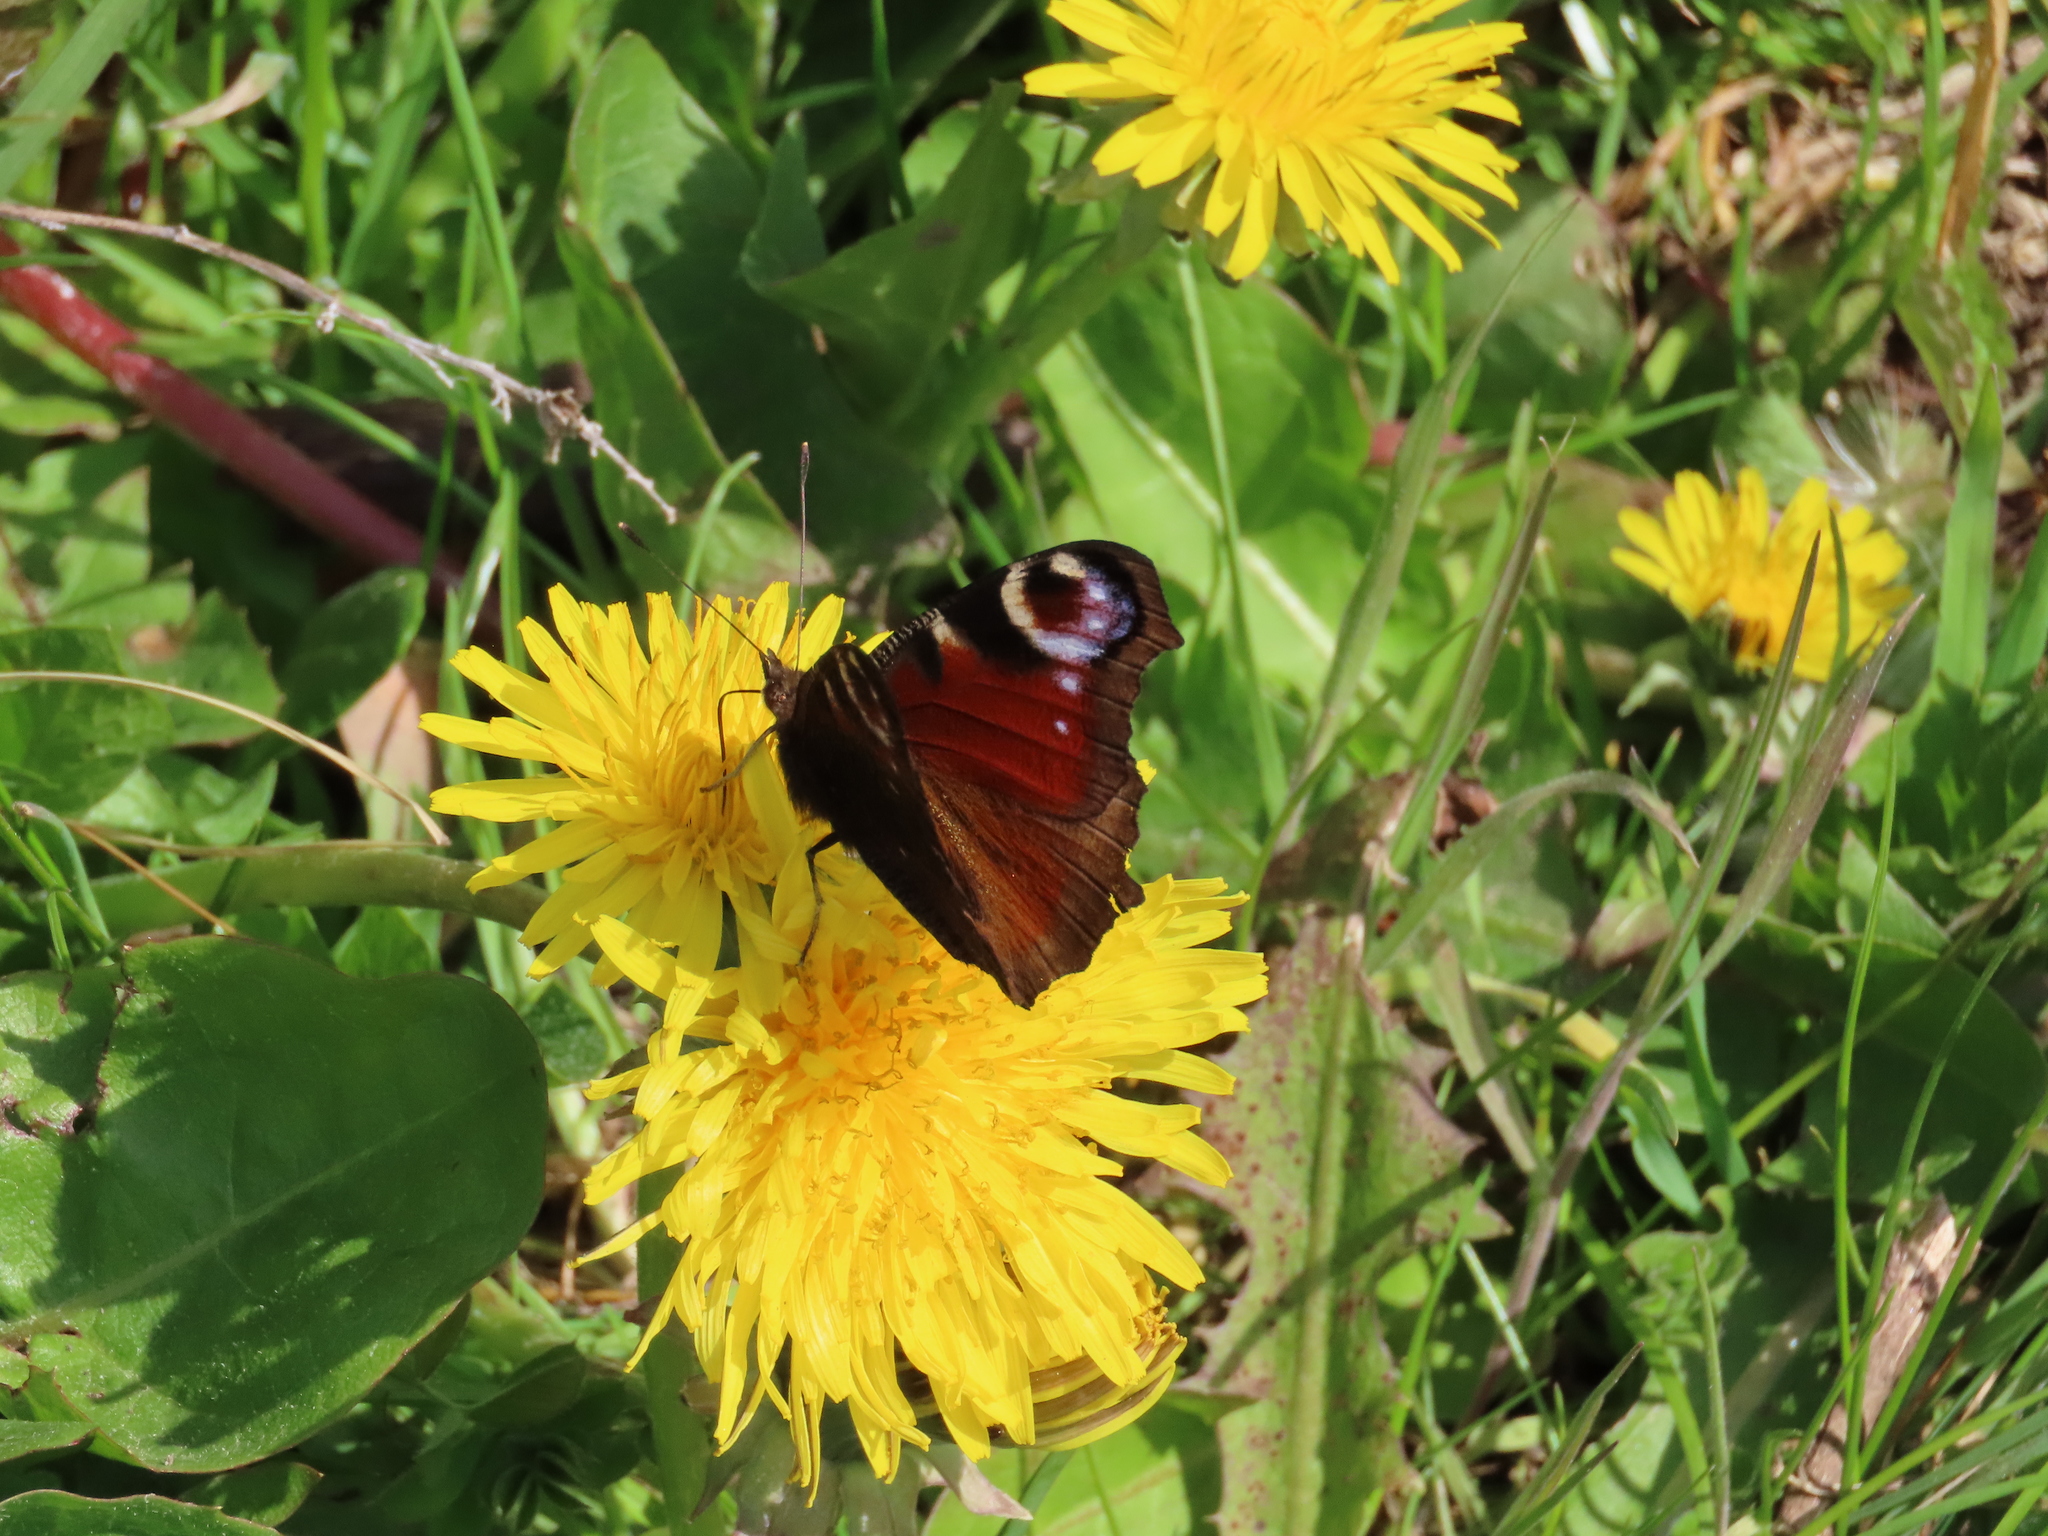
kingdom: Animalia
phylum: Arthropoda
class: Insecta
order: Lepidoptera
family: Nymphalidae
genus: Aglais
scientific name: Aglais io
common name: Peacock
